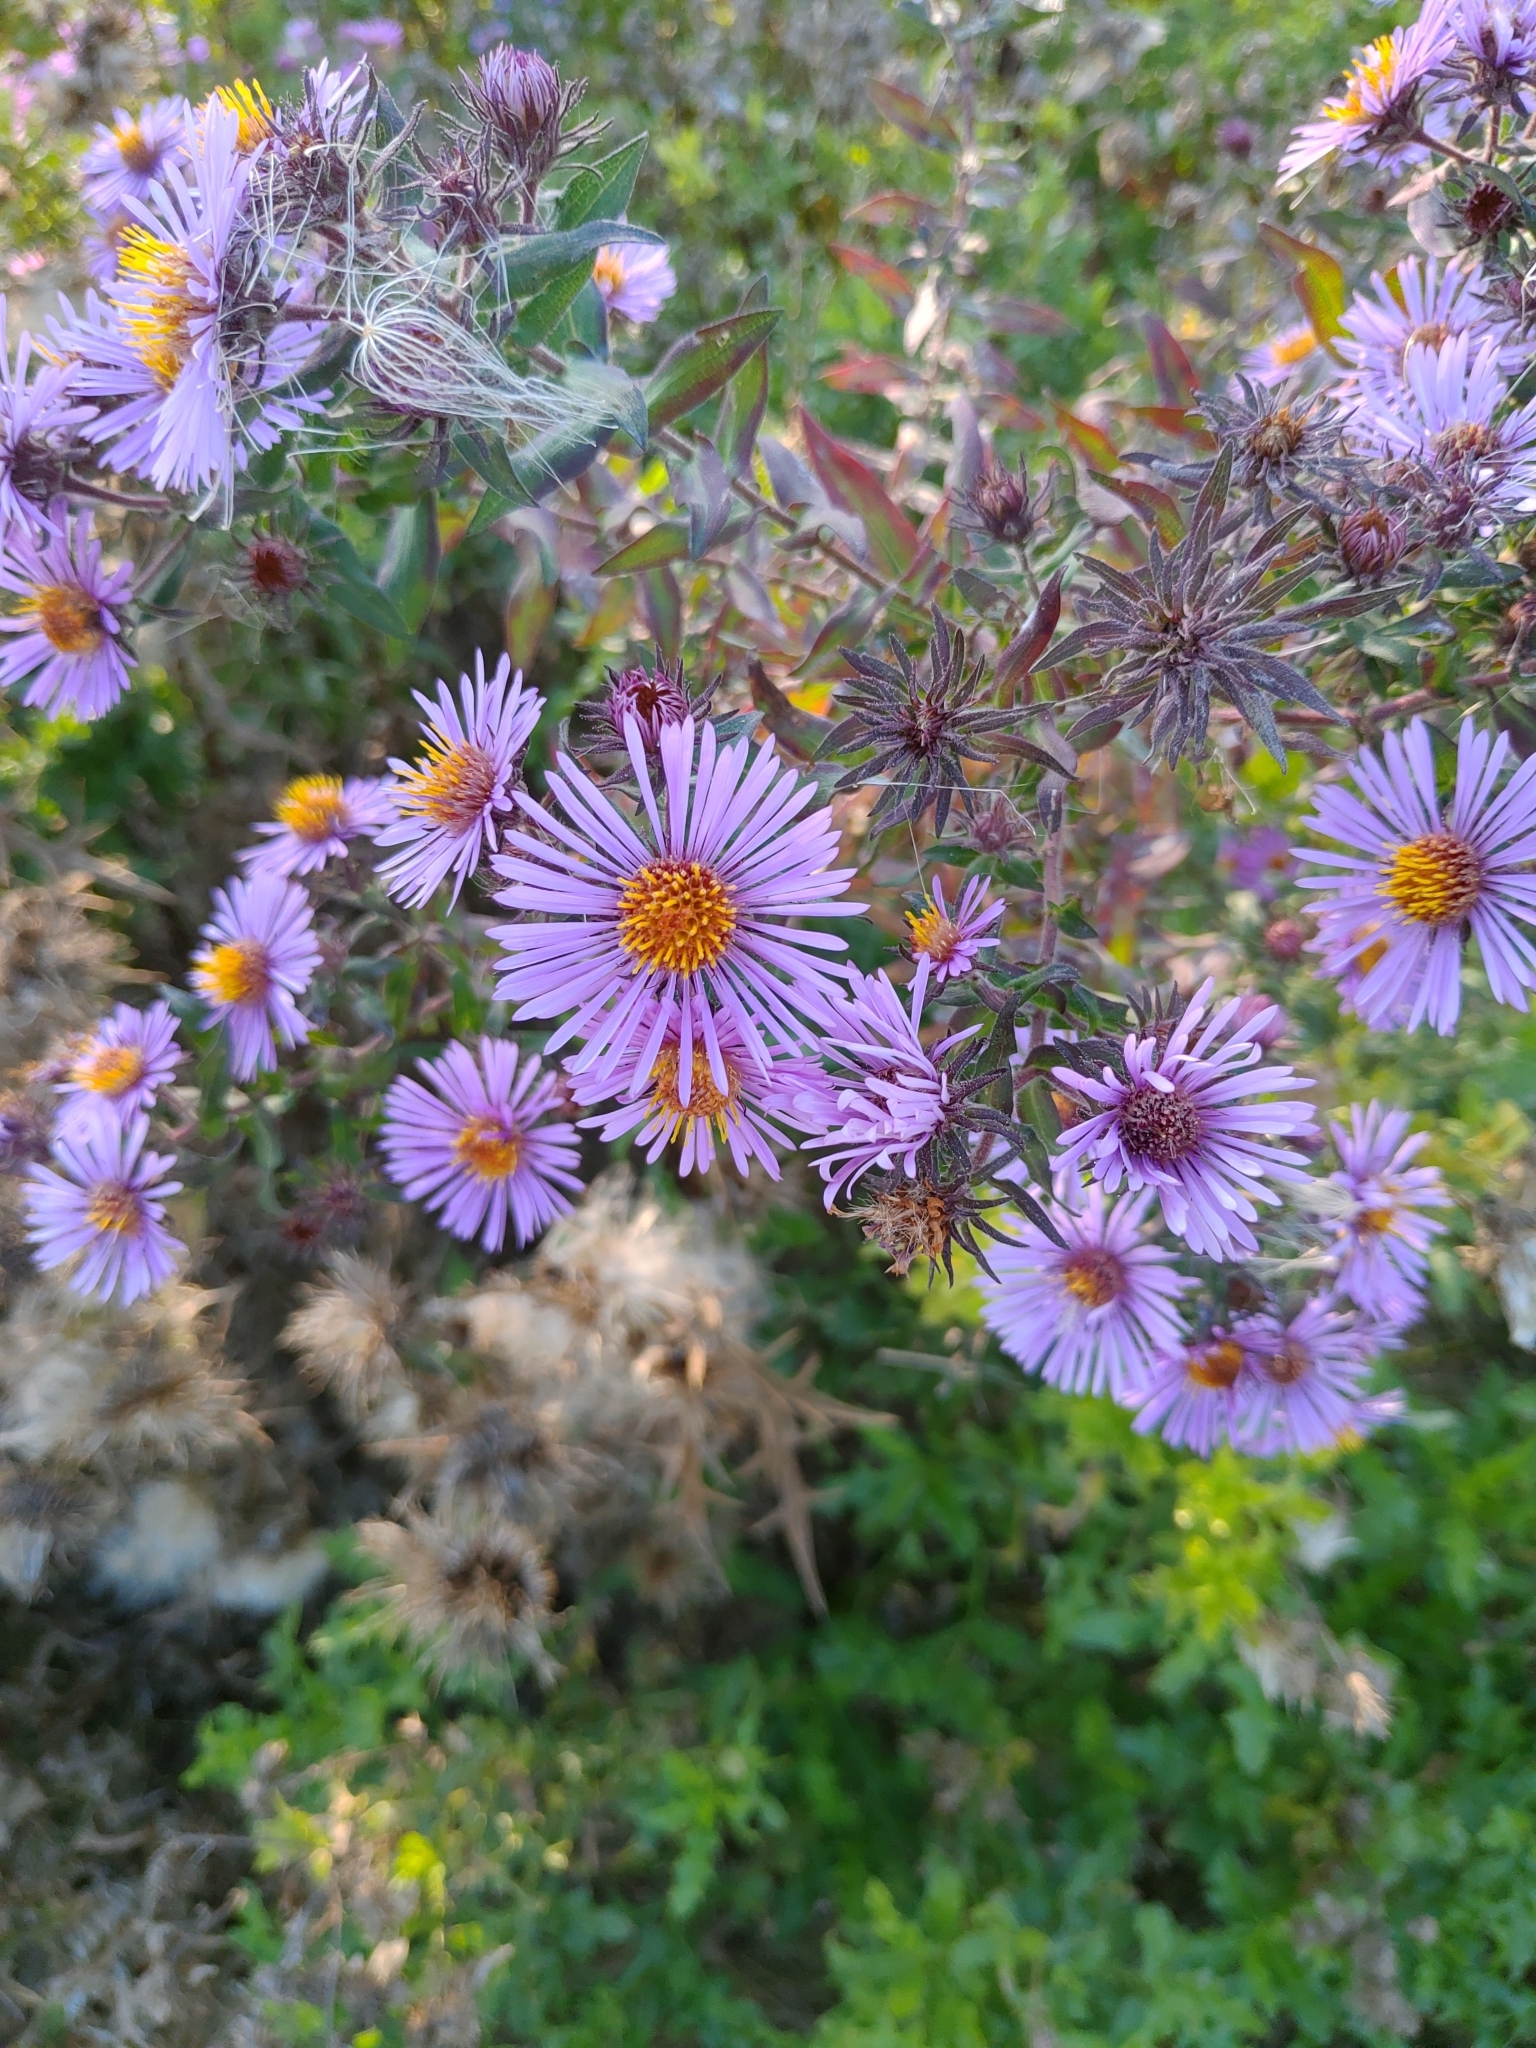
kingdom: Plantae
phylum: Tracheophyta
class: Magnoliopsida
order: Asterales
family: Asteraceae
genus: Symphyotrichum
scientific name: Symphyotrichum novae-angliae
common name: Michaelmas daisy
